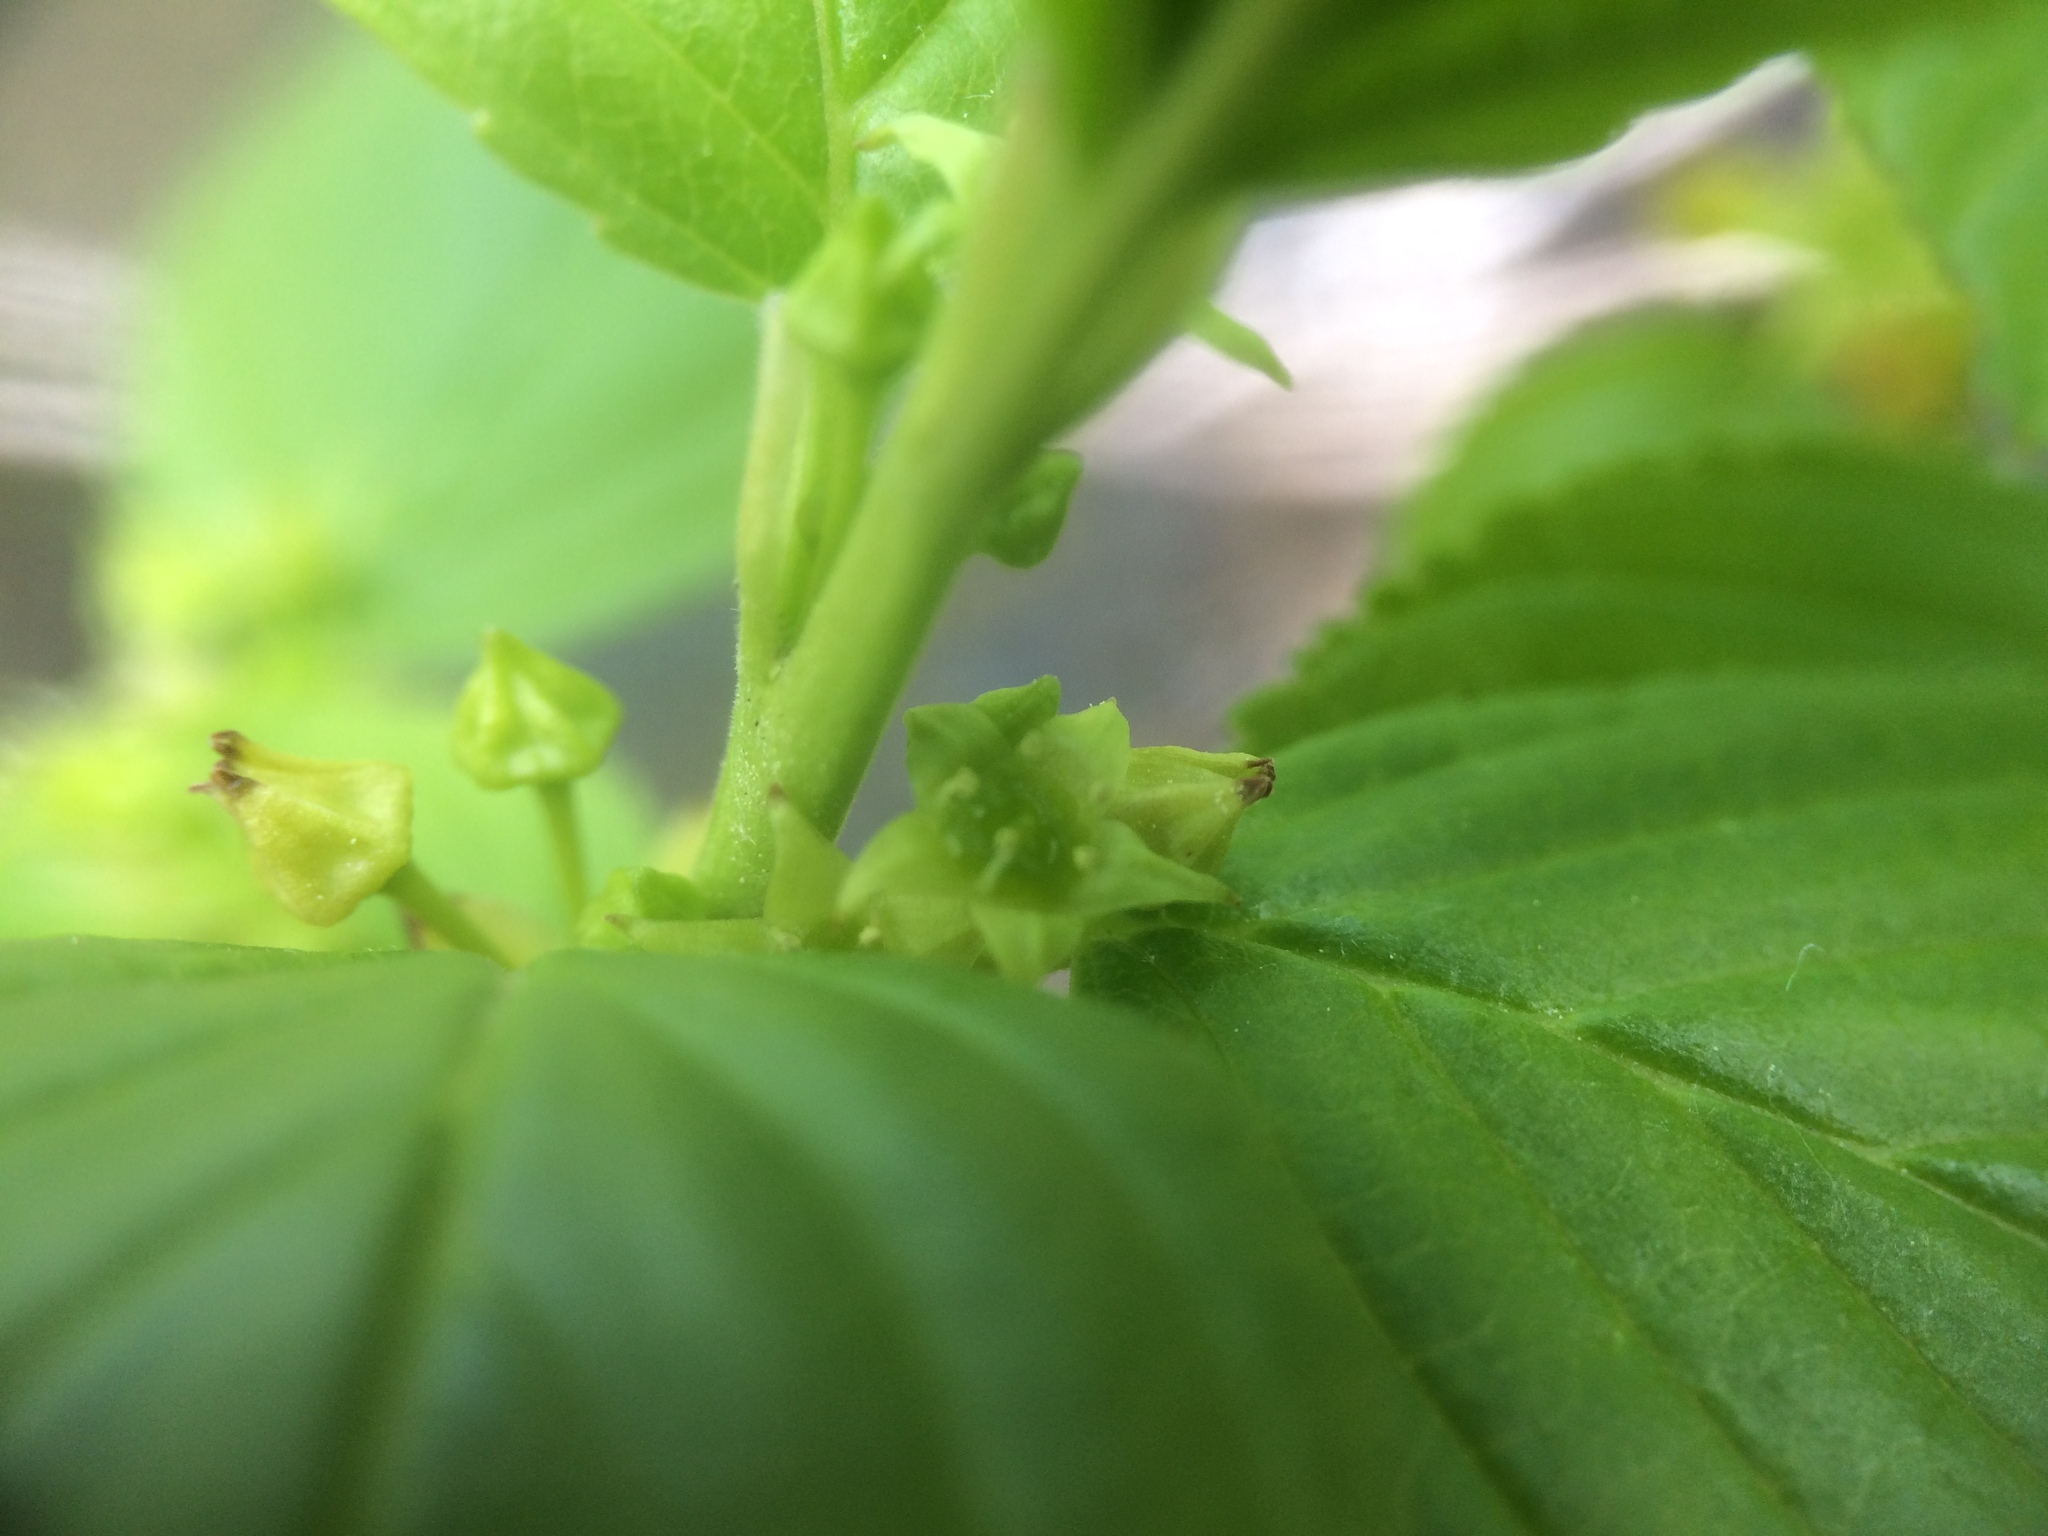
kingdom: Plantae
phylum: Tracheophyta
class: Magnoliopsida
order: Rosales
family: Rhamnaceae
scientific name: Rhamnaceae
